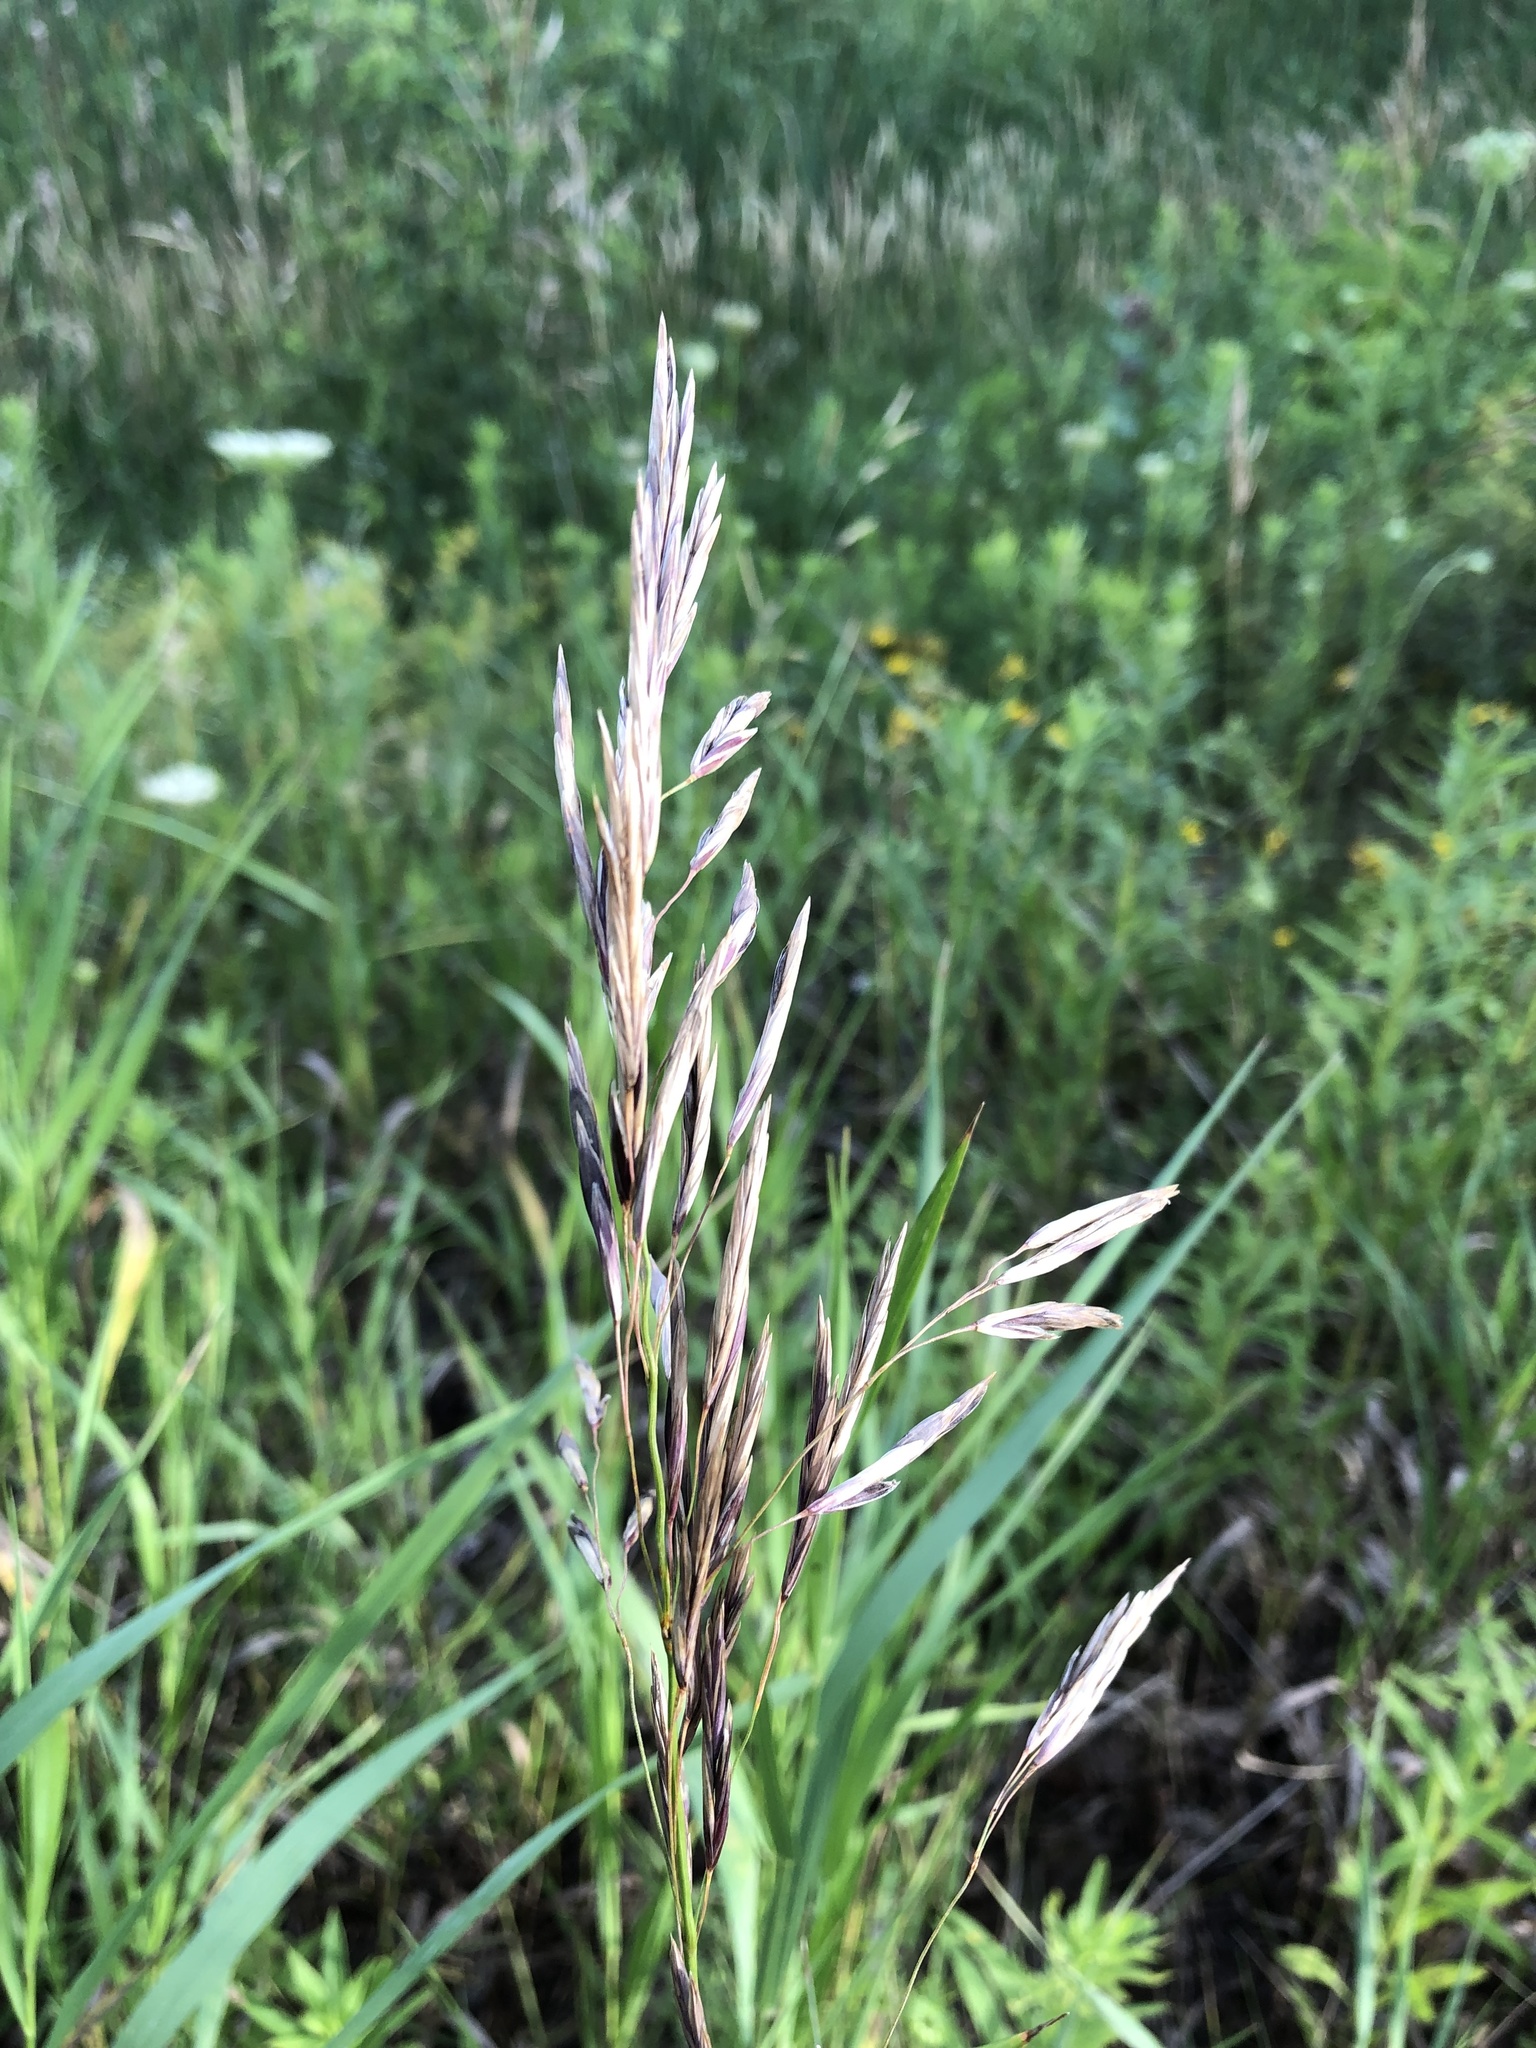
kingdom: Plantae
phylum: Tracheophyta
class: Liliopsida
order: Poales
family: Poaceae
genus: Bromus
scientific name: Bromus inermis
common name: Smooth brome
